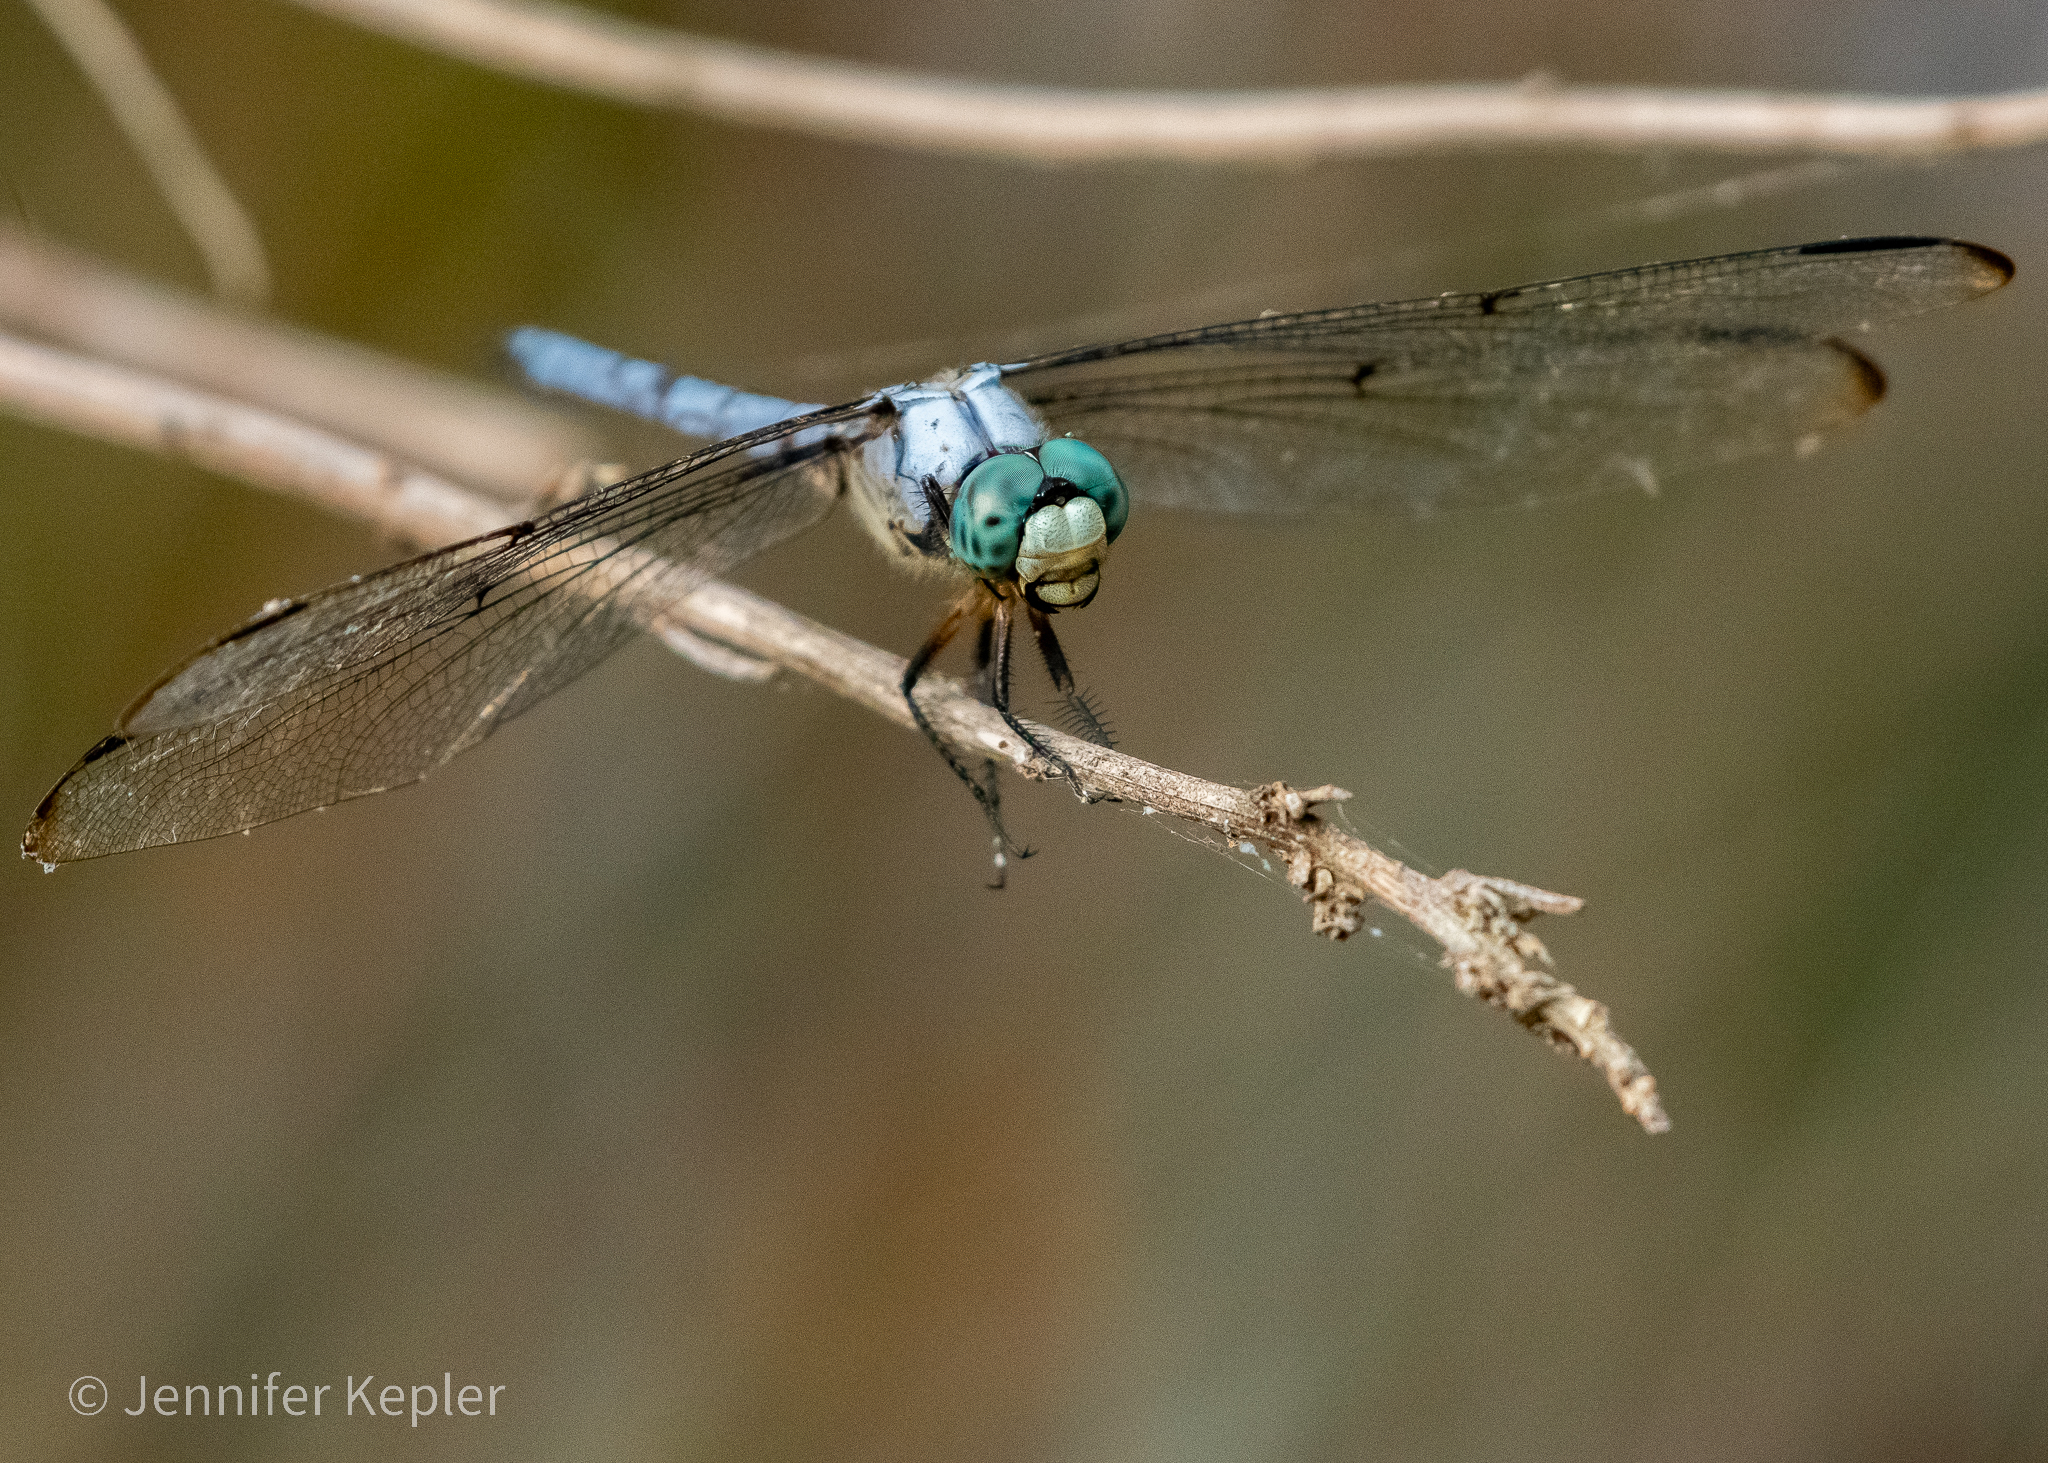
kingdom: Animalia
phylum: Arthropoda
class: Insecta
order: Odonata
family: Libellulidae
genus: Libellula
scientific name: Libellula vibrans
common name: Great blue skimmer
